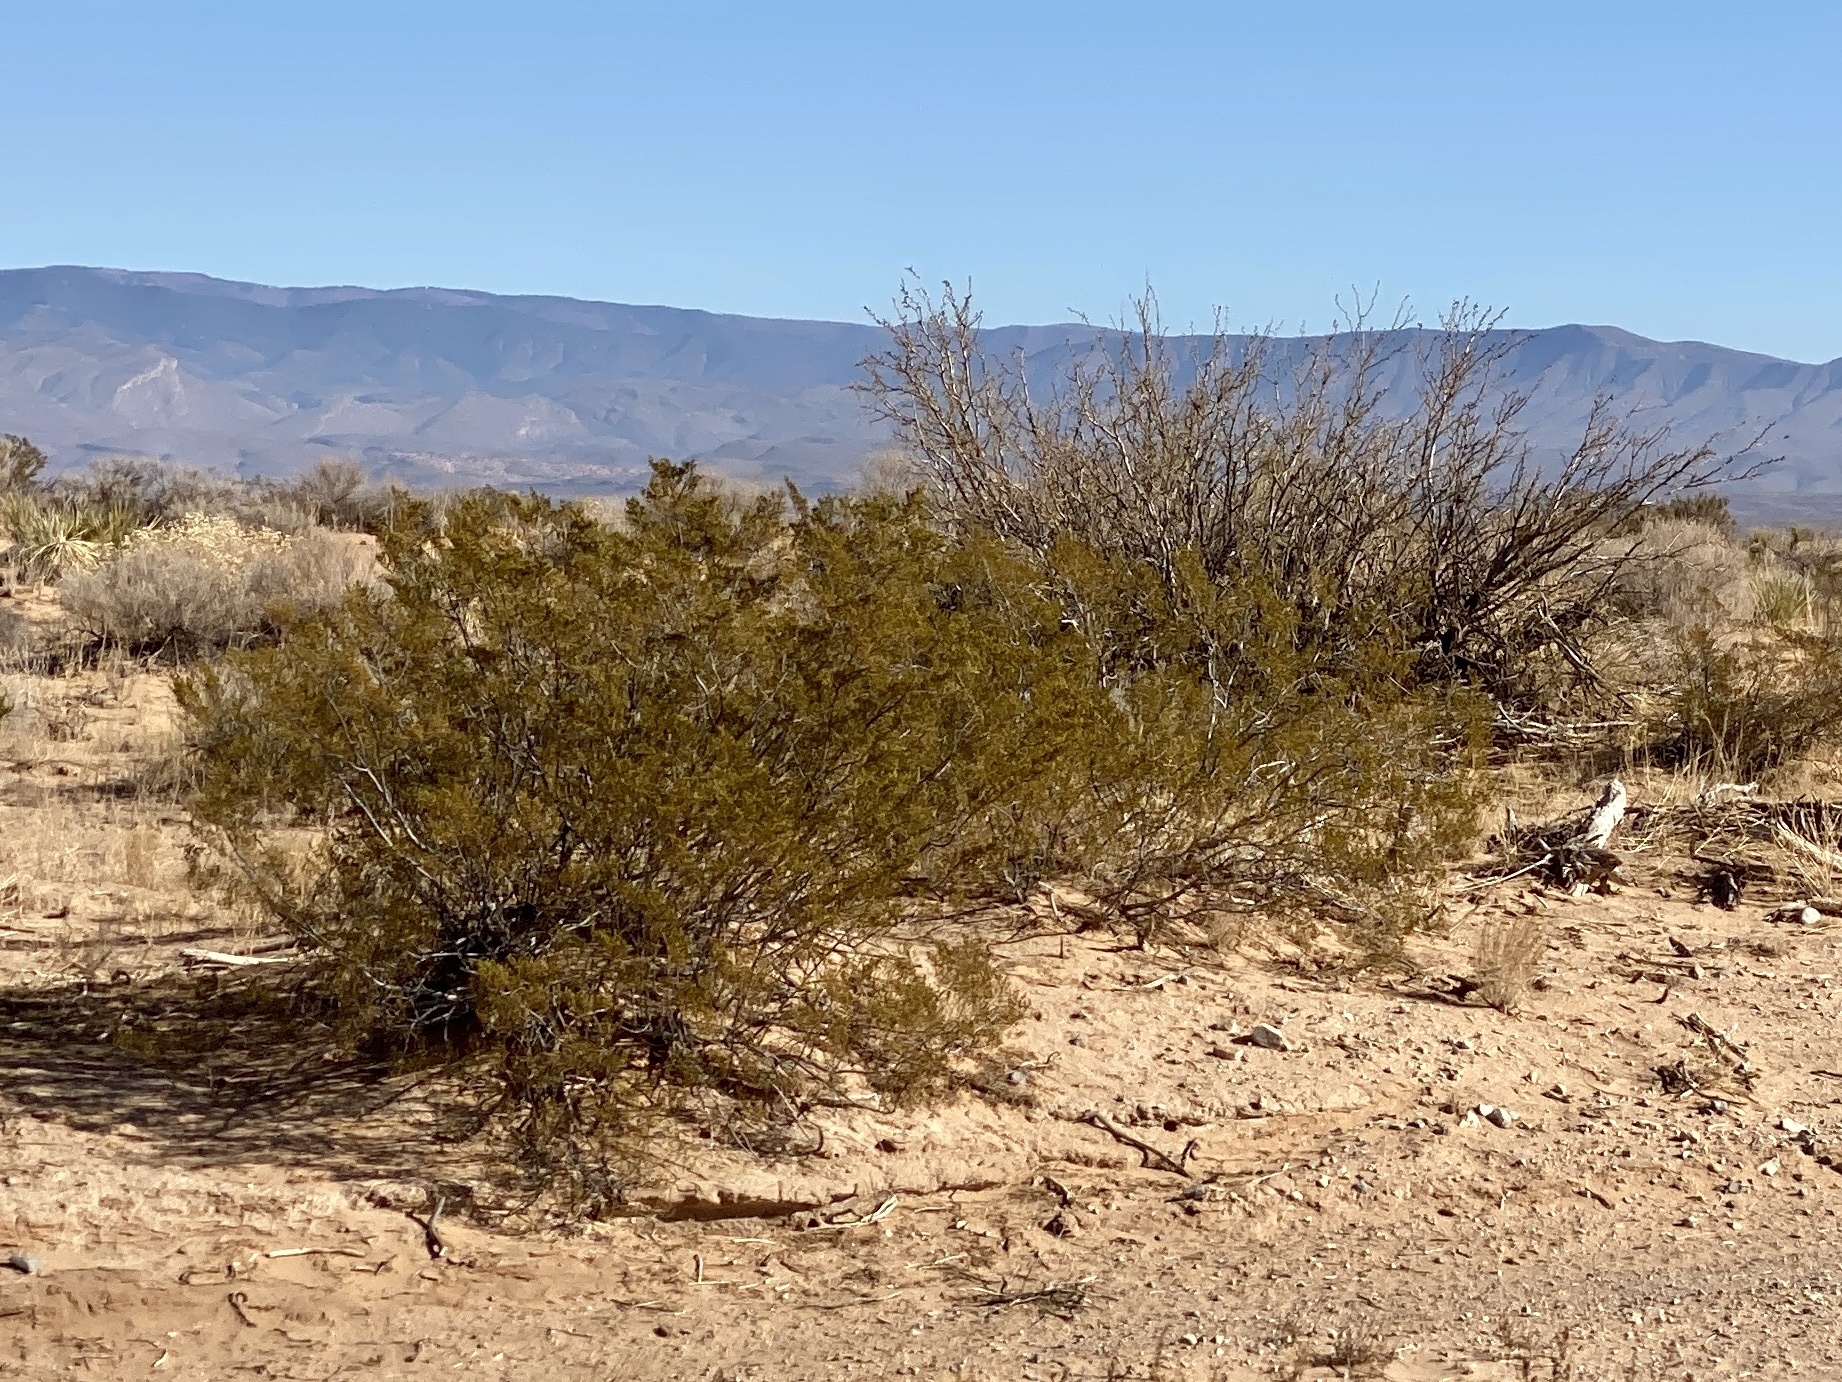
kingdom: Plantae
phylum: Tracheophyta
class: Magnoliopsida
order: Zygophyllales
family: Zygophyllaceae
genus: Larrea
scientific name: Larrea tridentata
